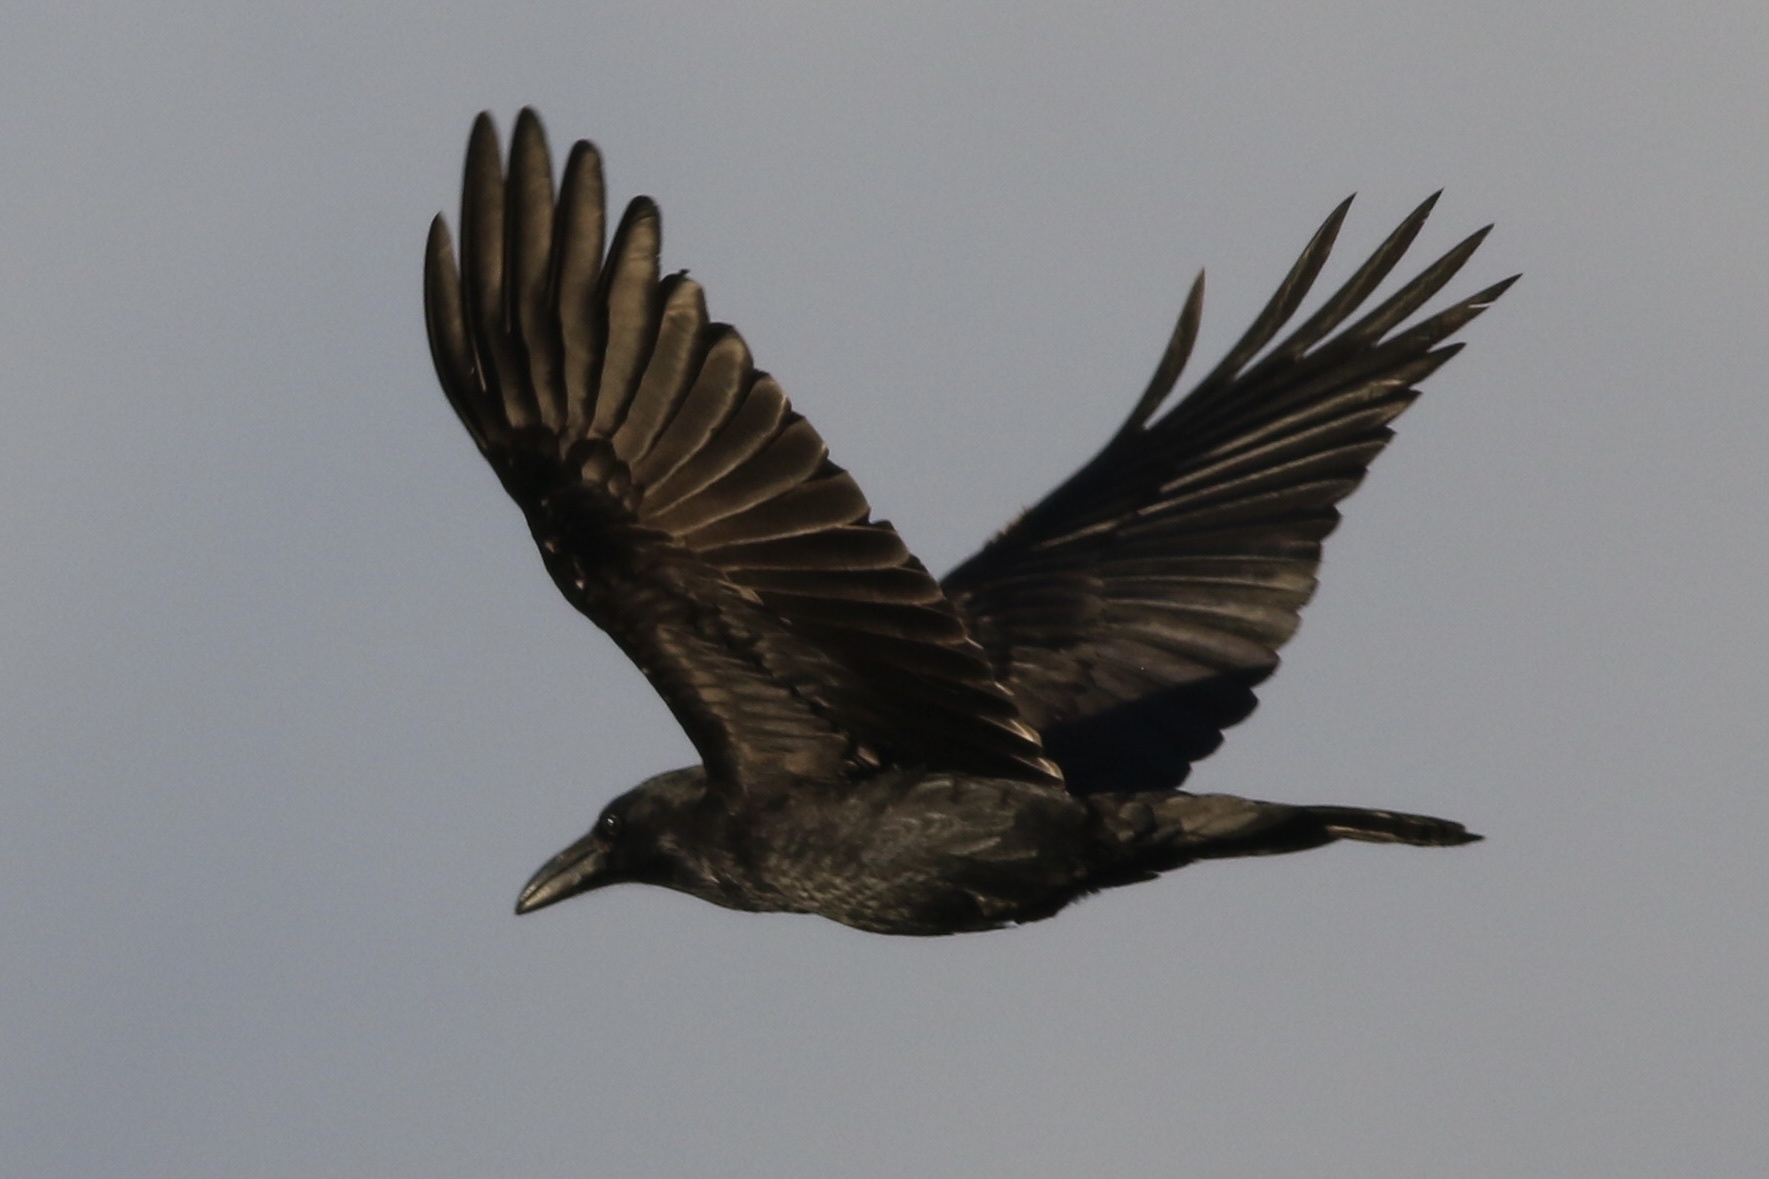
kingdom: Animalia
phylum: Chordata
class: Aves
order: Passeriformes
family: Corvidae
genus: Corvus
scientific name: Corvus corax
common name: Common raven
